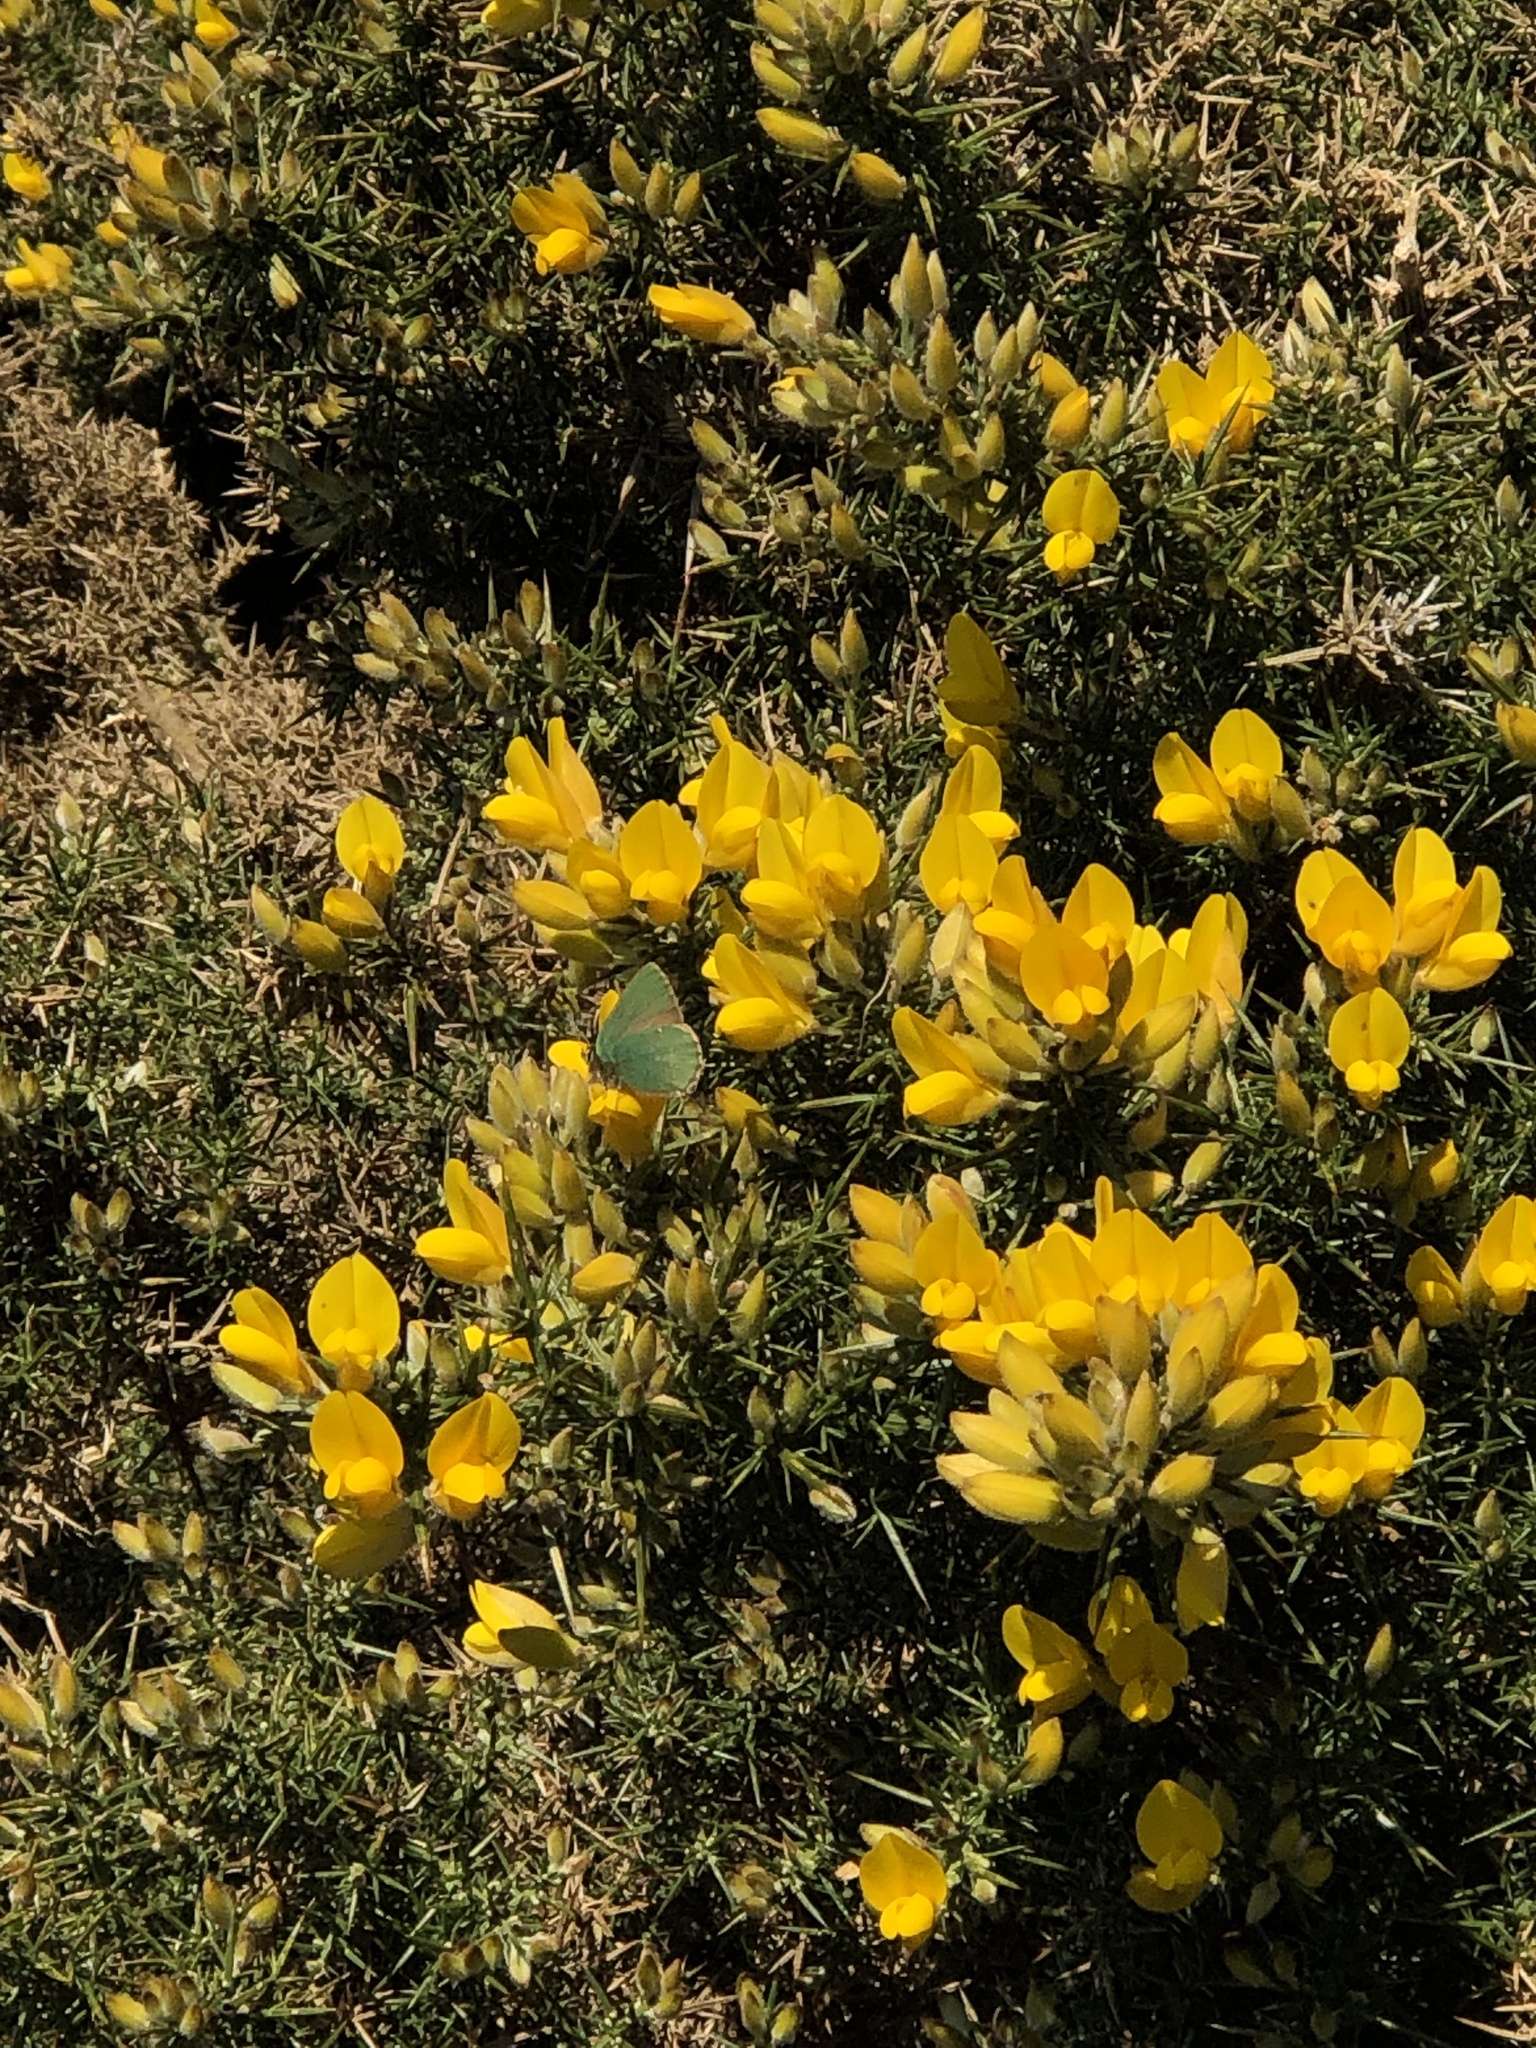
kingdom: Animalia
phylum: Arthropoda
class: Insecta
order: Lepidoptera
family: Lycaenidae
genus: Callophrys
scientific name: Callophrys rubi
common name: Green hairstreak
